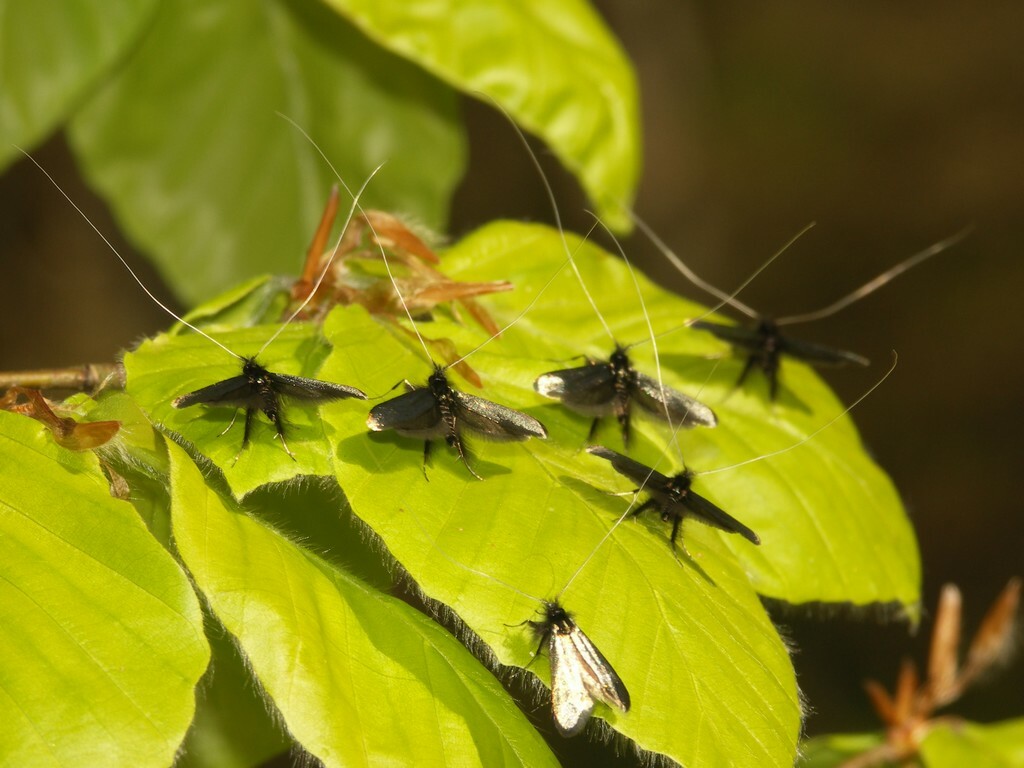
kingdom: Animalia
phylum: Arthropoda
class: Insecta
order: Lepidoptera
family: Adelidae
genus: Adela
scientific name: Adela viridella
